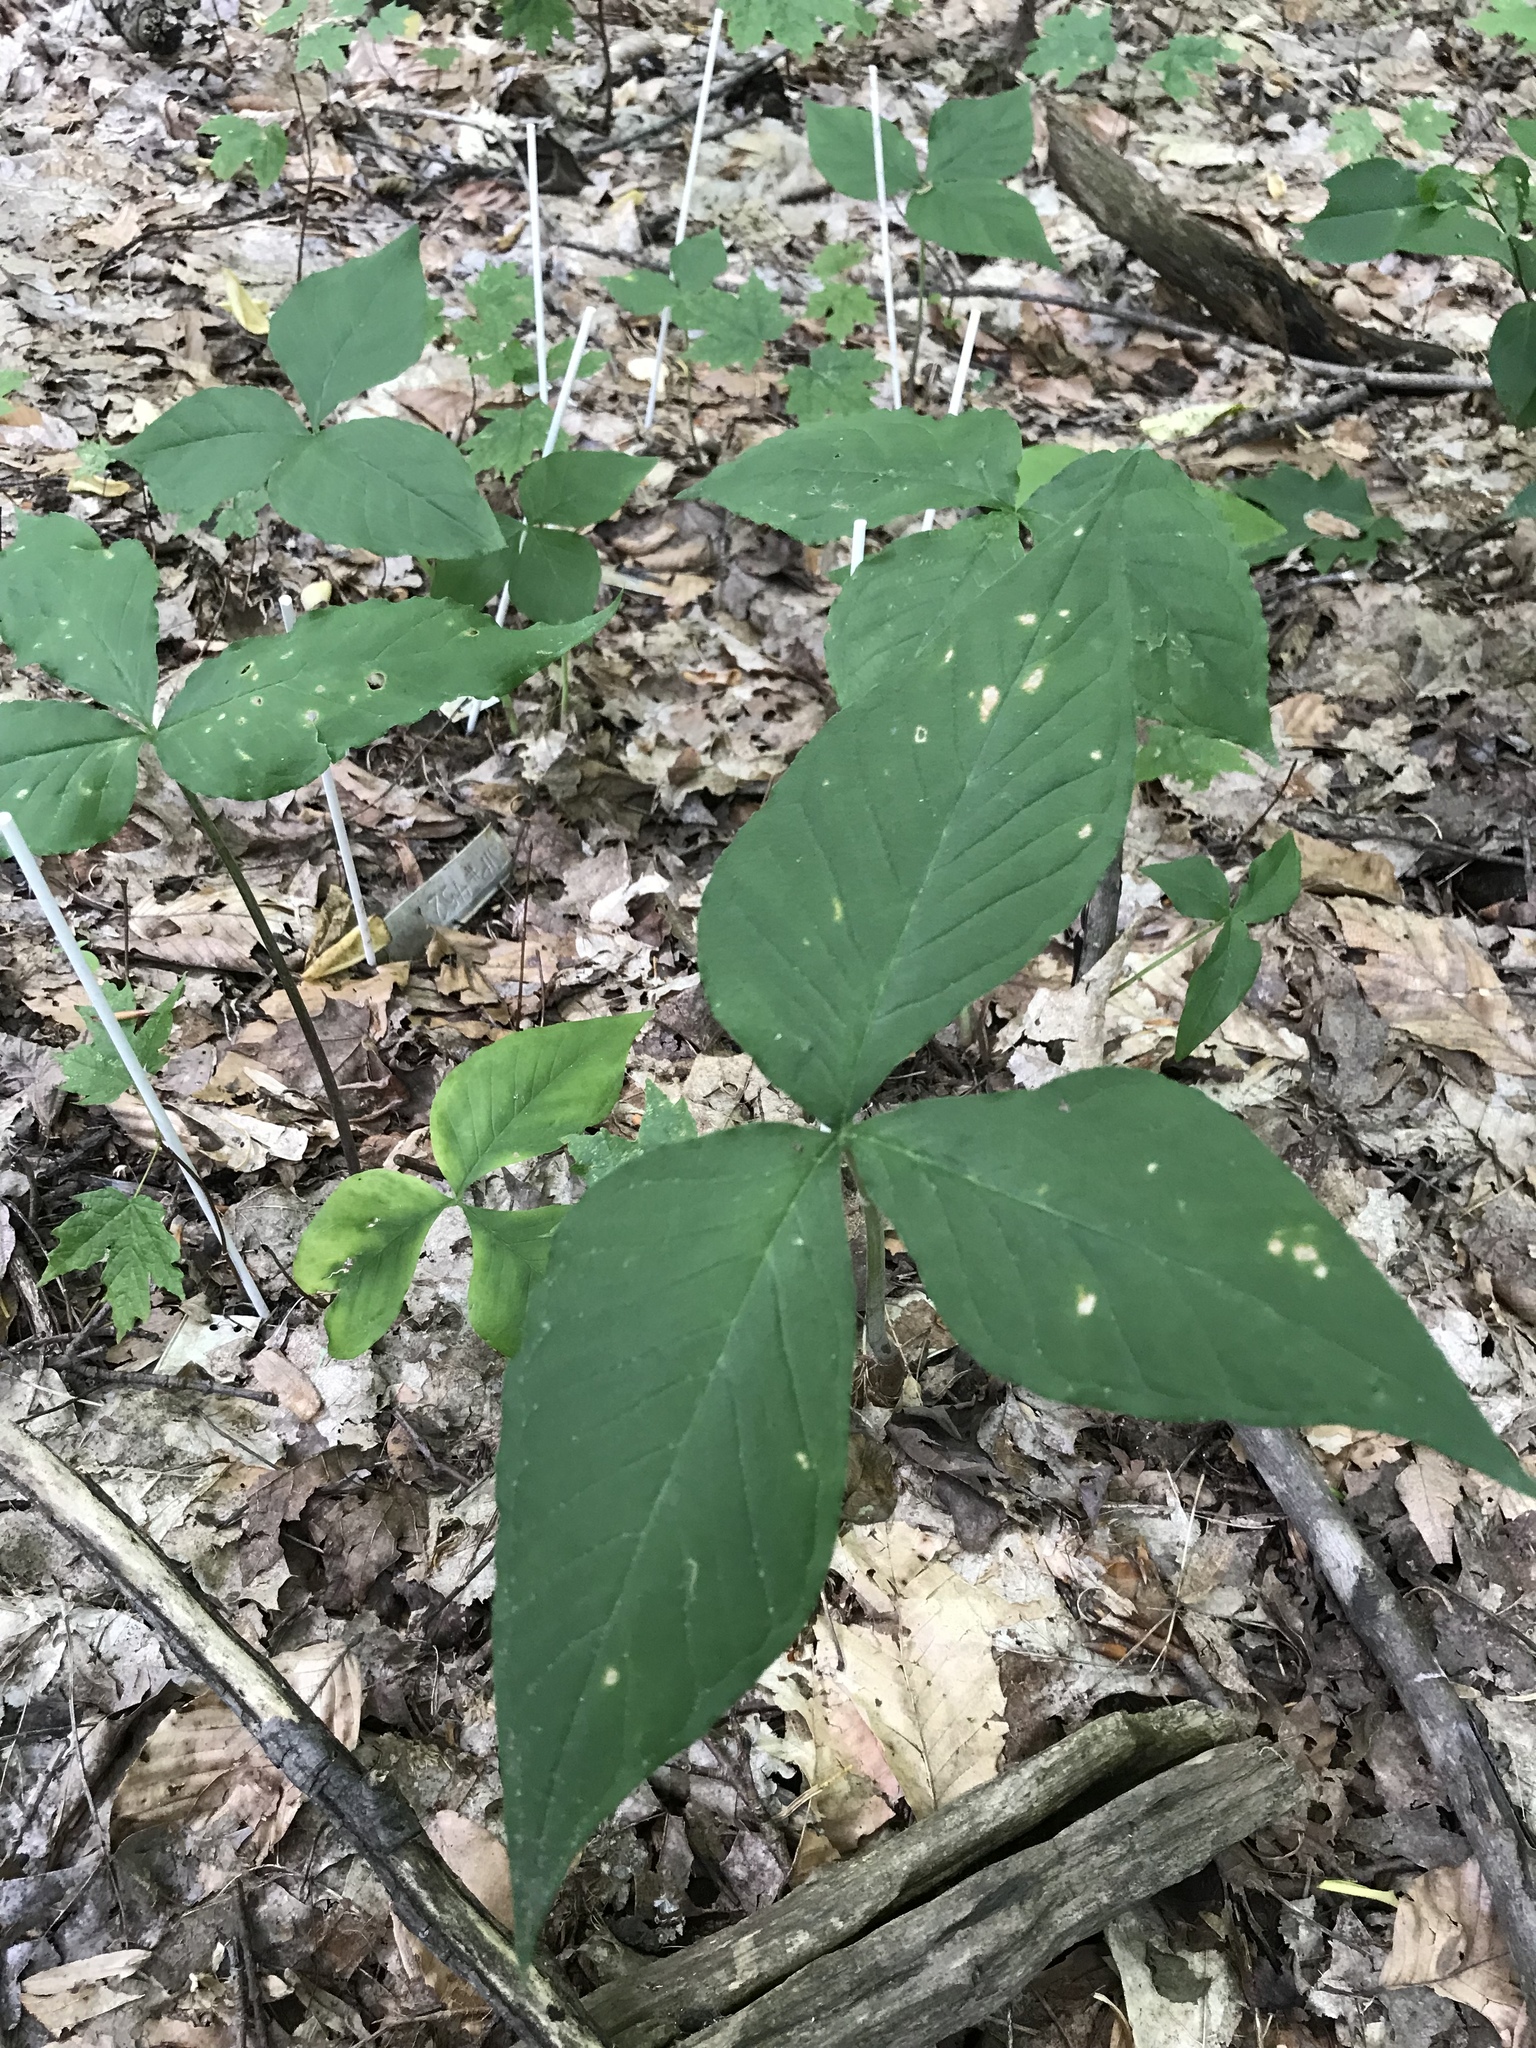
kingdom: Plantae
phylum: Tracheophyta
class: Liliopsida
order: Alismatales
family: Araceae
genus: Arisaema
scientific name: Arisaema triphyllum
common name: Jack-in-the-pulpit
